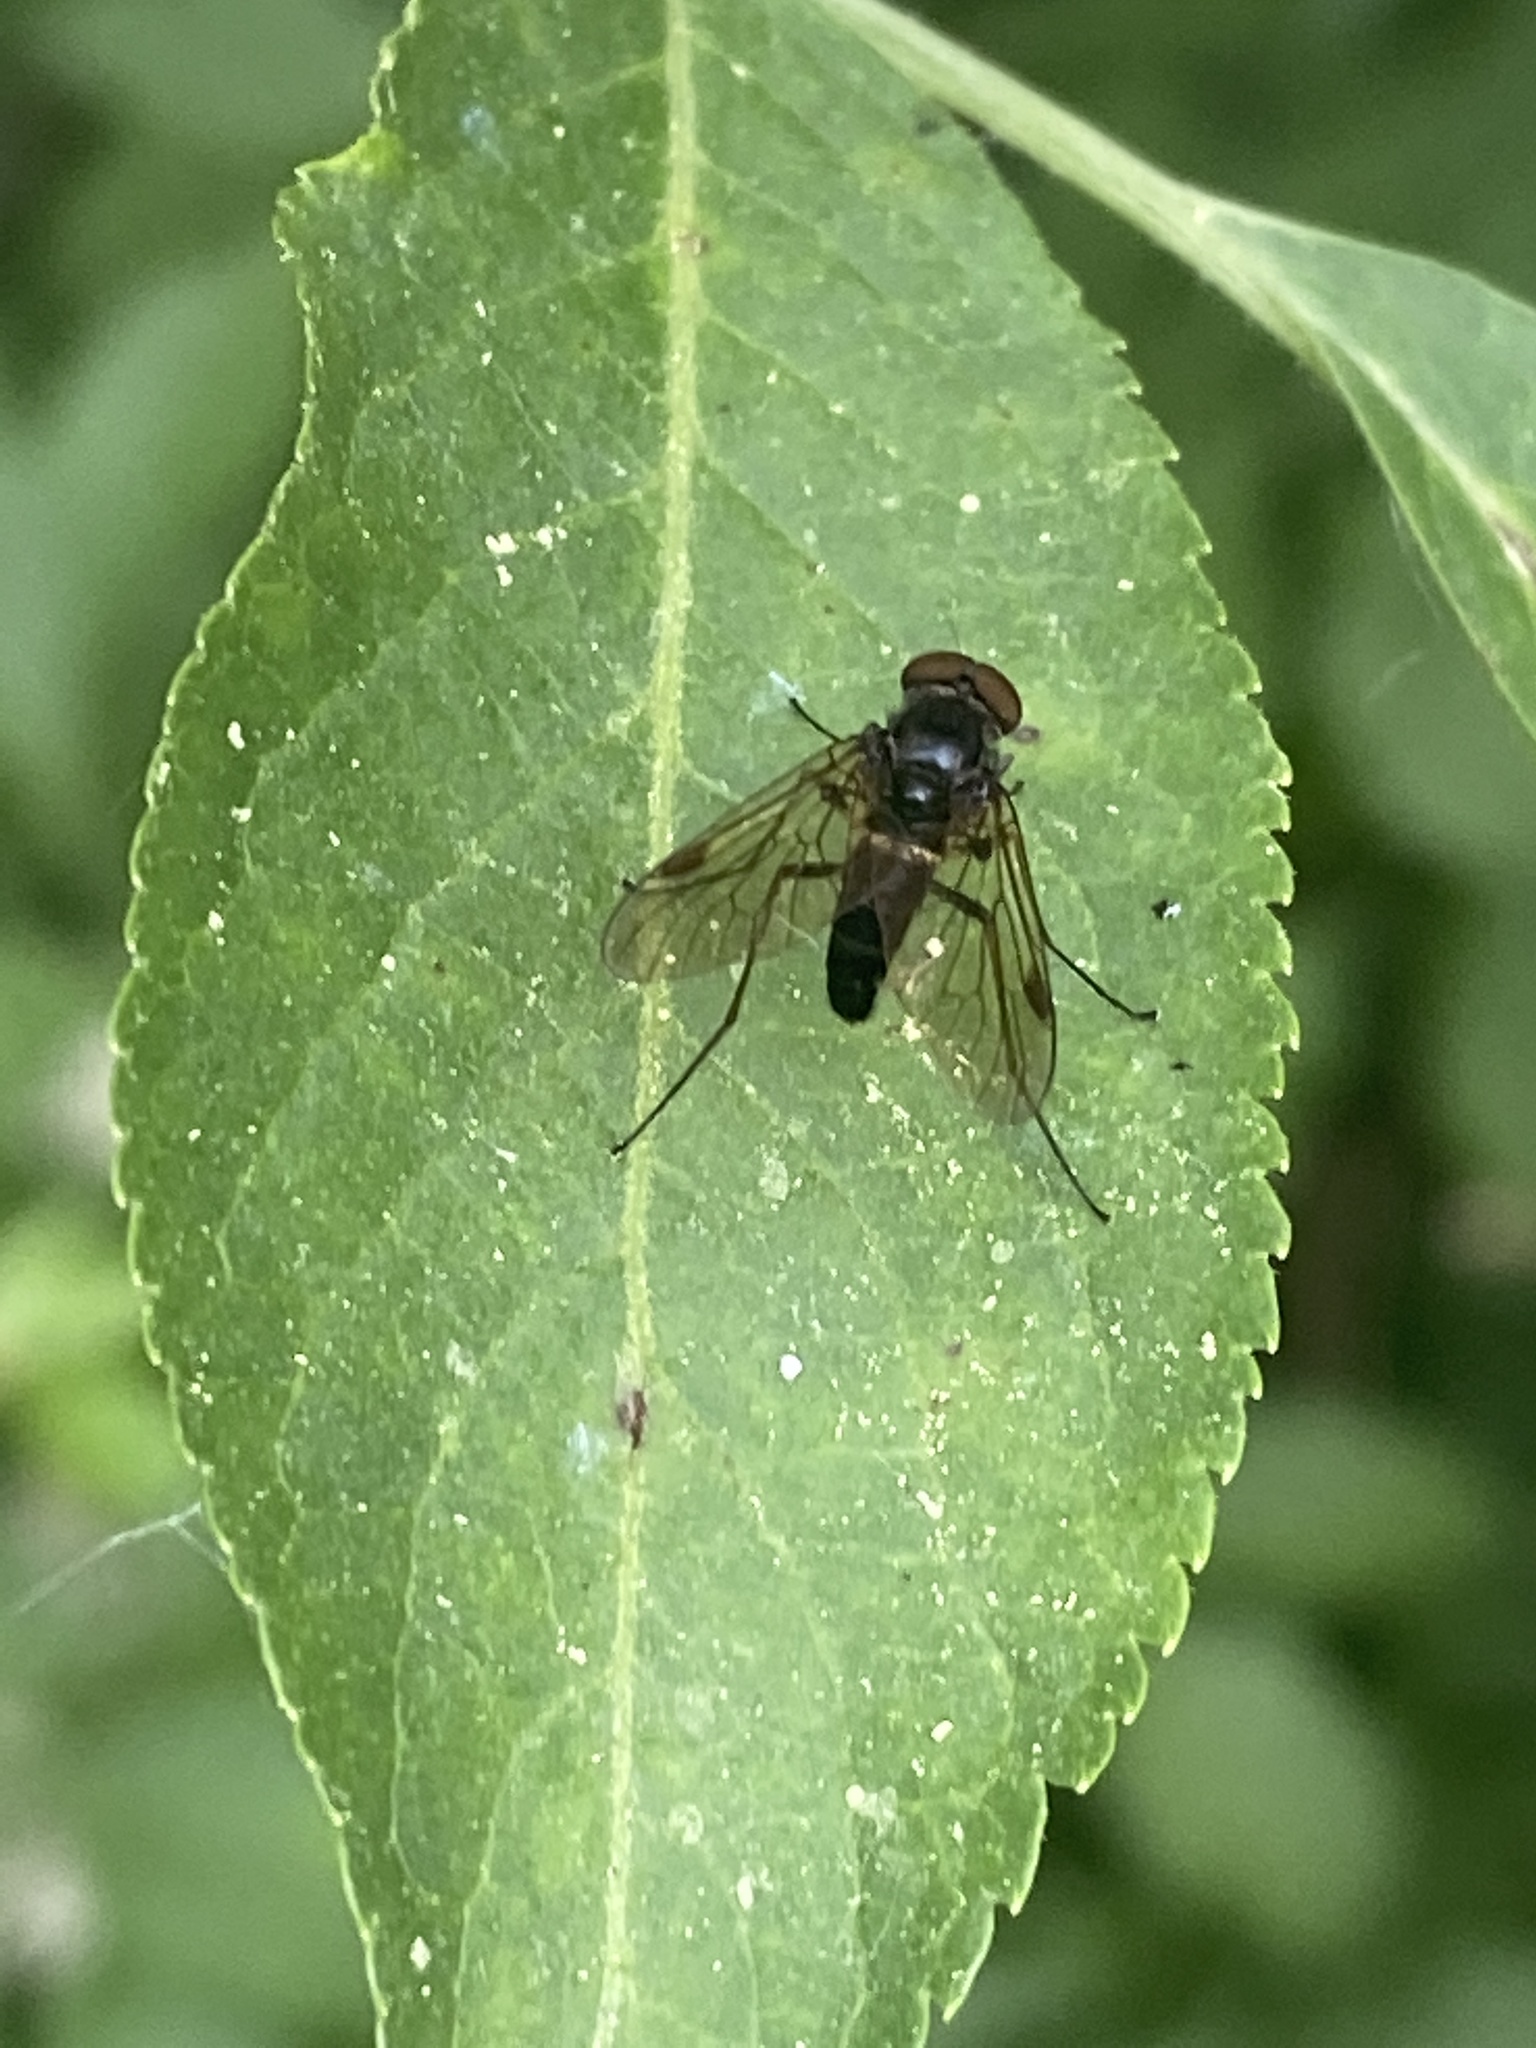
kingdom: Animalia
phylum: Arthropoda
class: Insecta
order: Diptera
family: Rhagionidae
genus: Chrysopilus
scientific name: Chrysopilus cristatus
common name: Black snipefly
